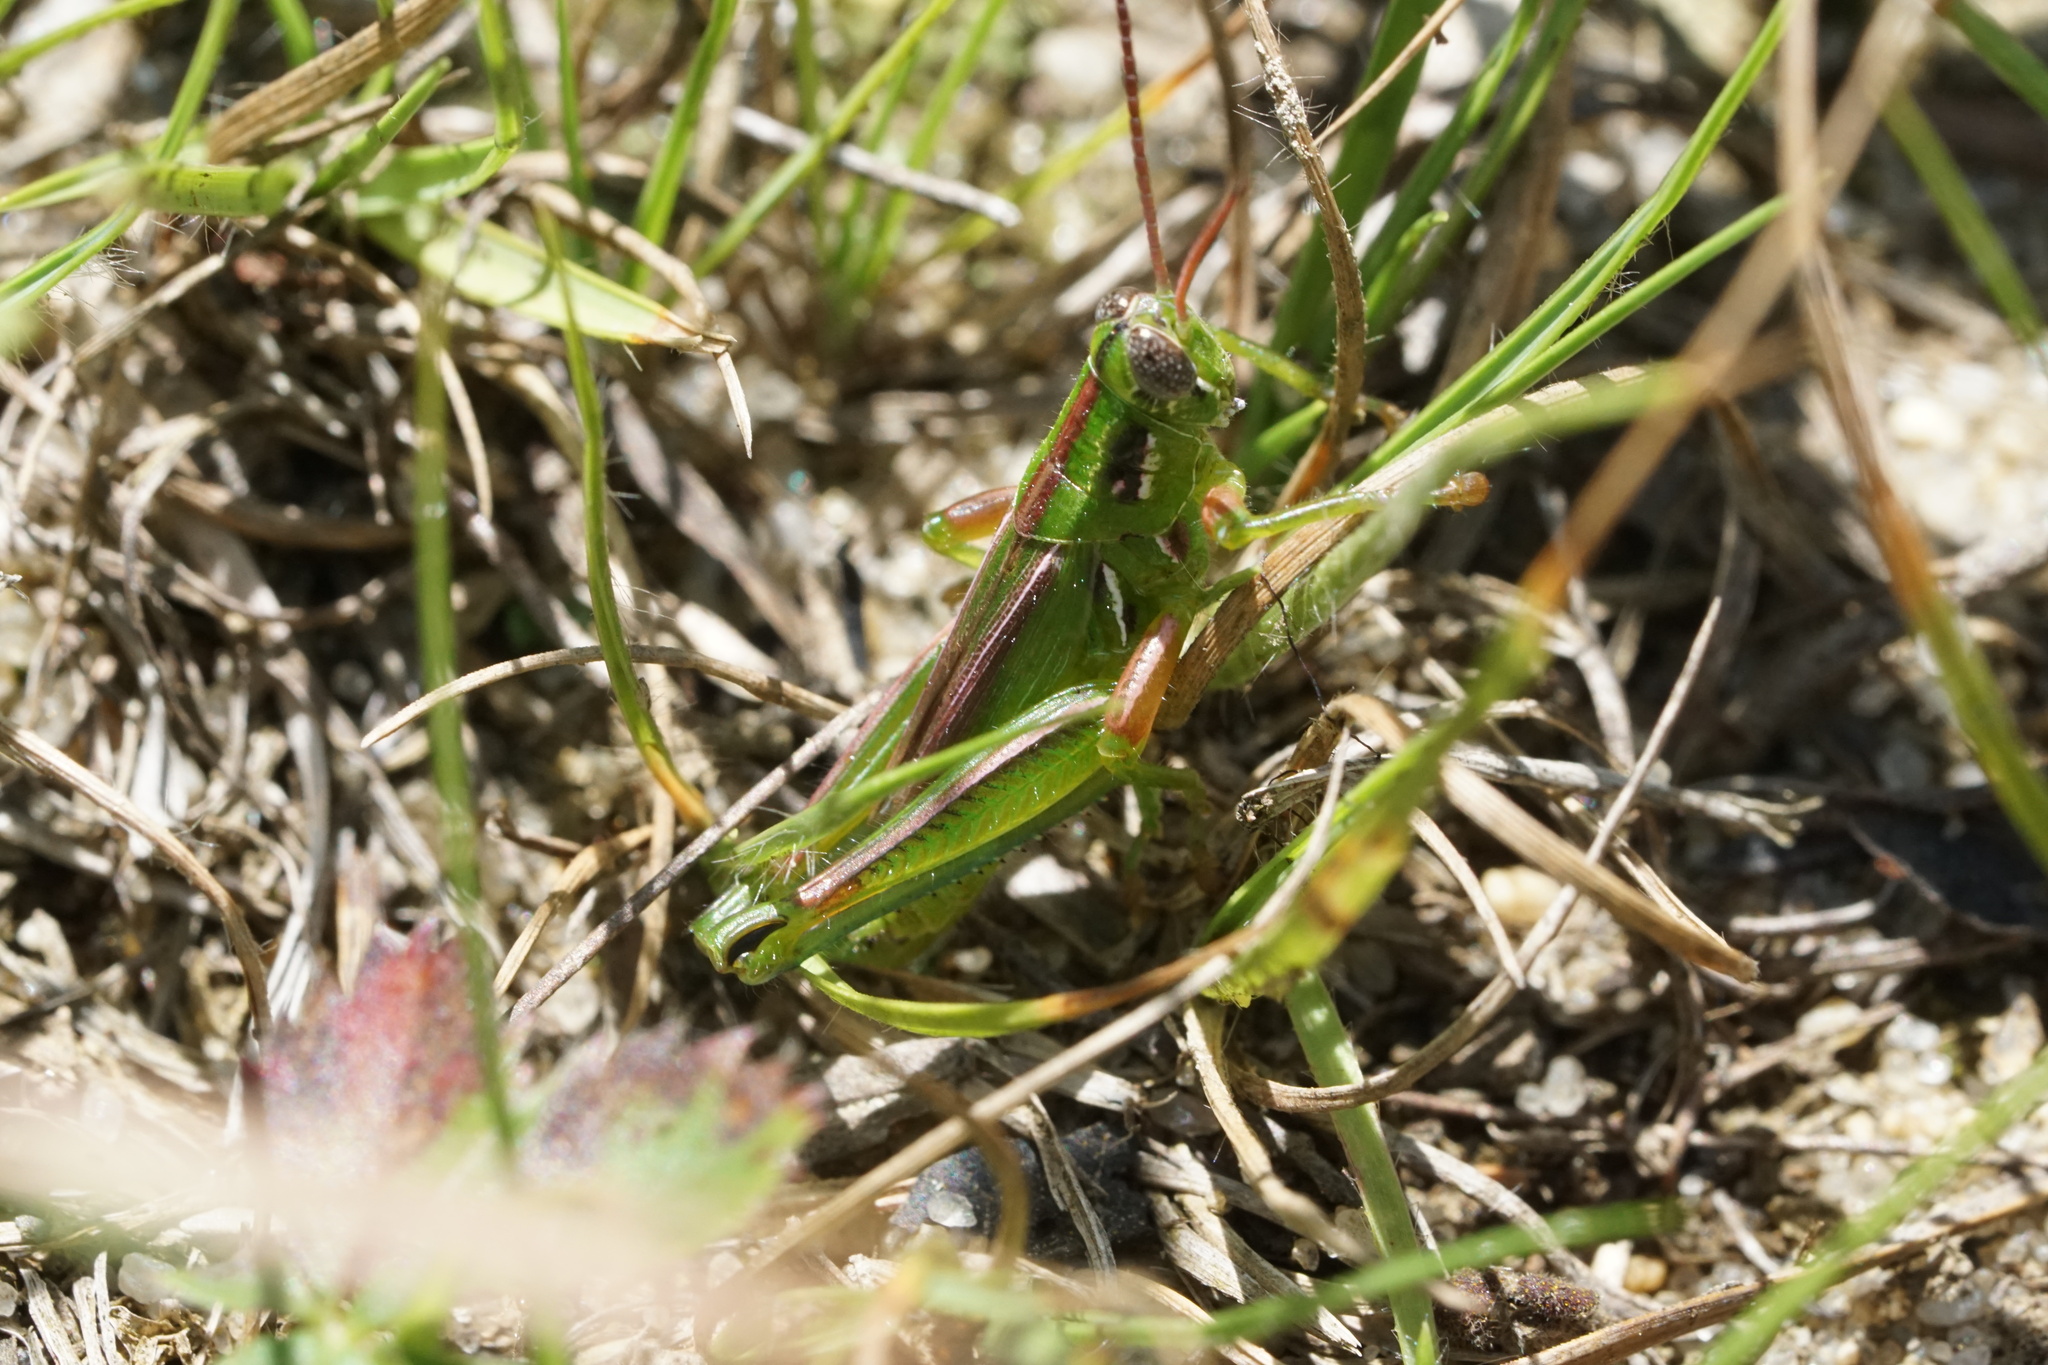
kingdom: Animalia
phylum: Arthropoda
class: Insecta
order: Orthoptera
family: Acrididae
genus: Hesperotettix
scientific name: Hesperotettix viridis
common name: Meadow purple-striped grasshopper
